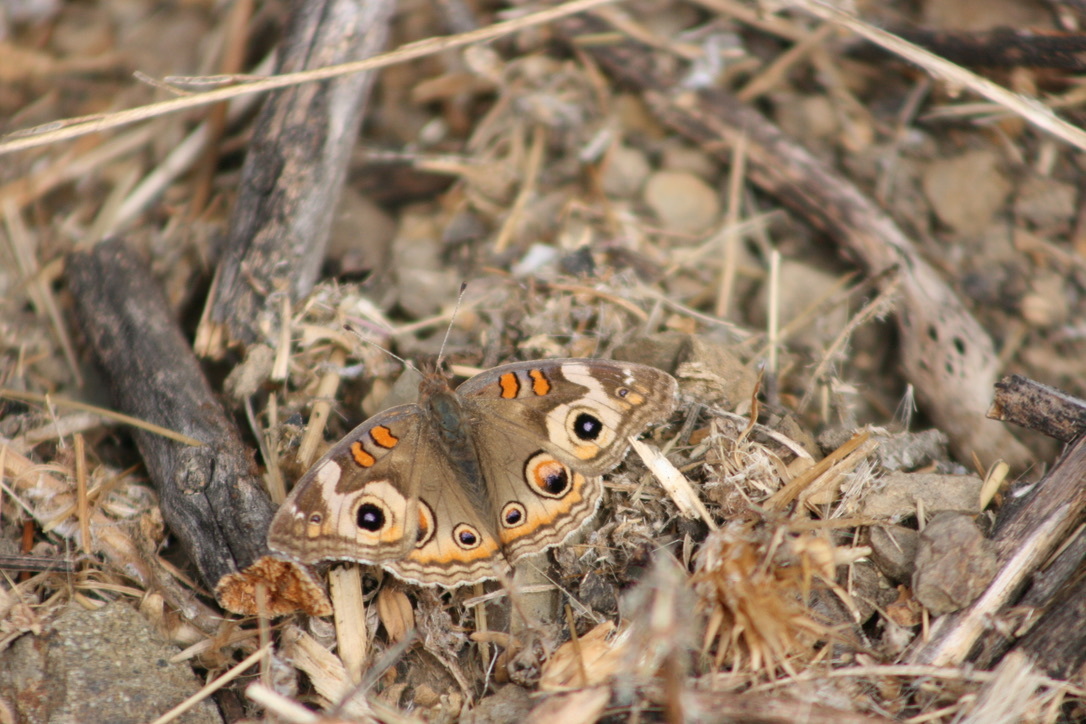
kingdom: Animalia
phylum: Arthropoda
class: Insecta
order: Lepidoptera
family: Nymphalidae
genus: Junonia
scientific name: Junonia grisea
